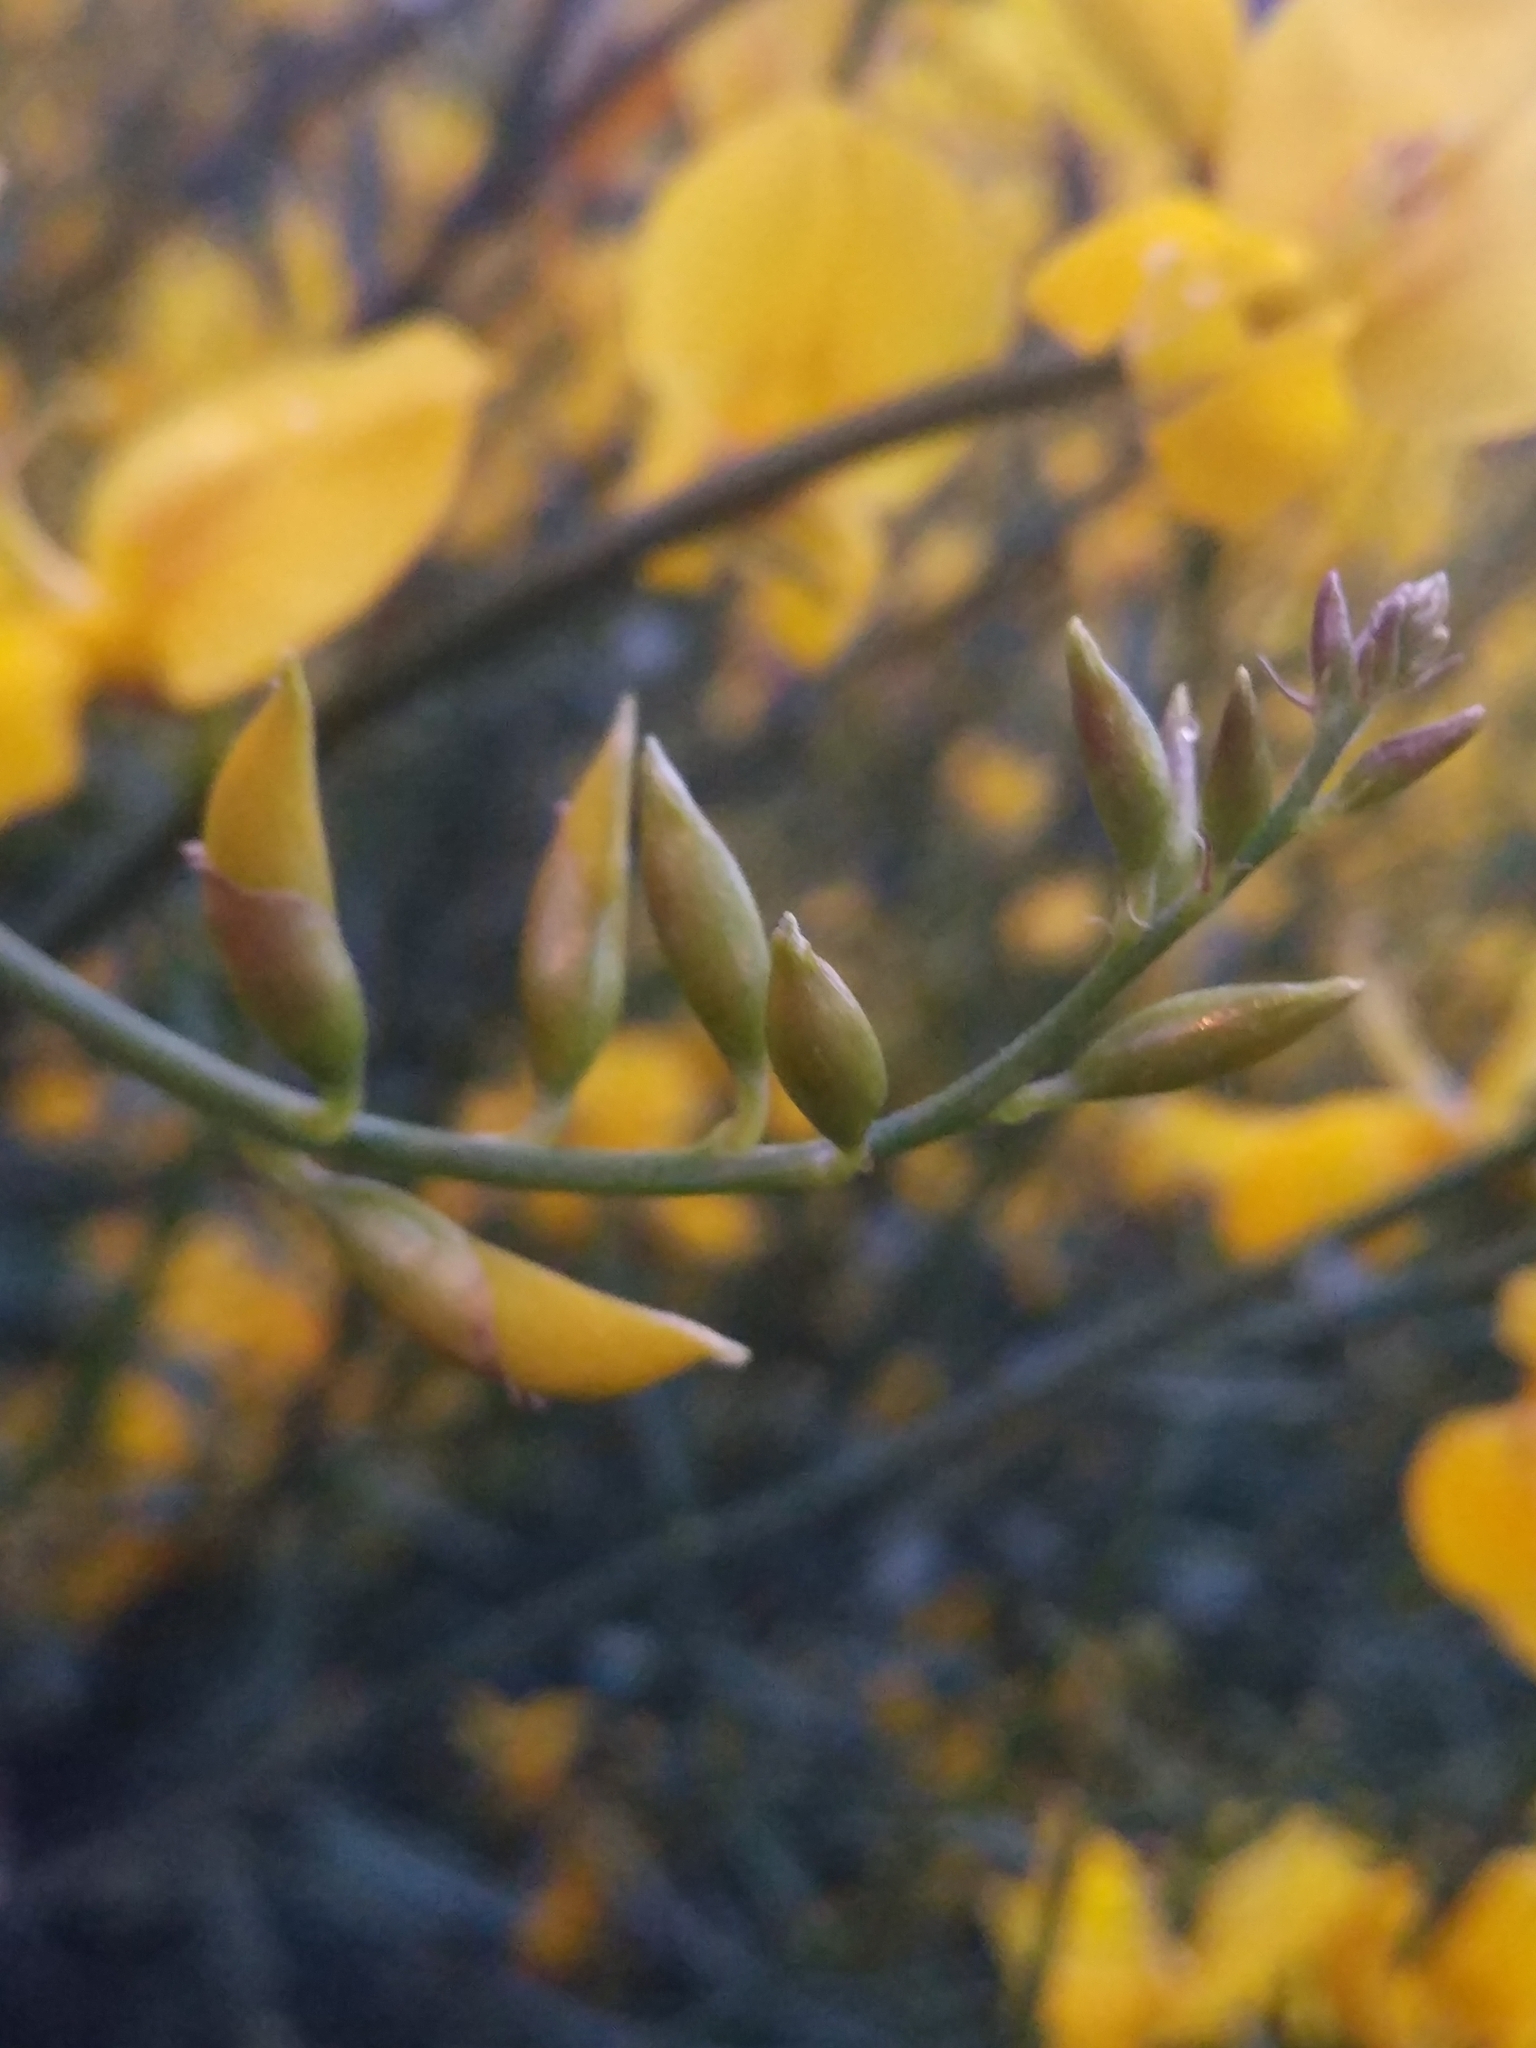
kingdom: Plantae
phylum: Tracheophyta
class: Magnoliopsida
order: Fabales
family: Fabaceae
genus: Spartium
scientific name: Spartium junceum
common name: Spanish broom
